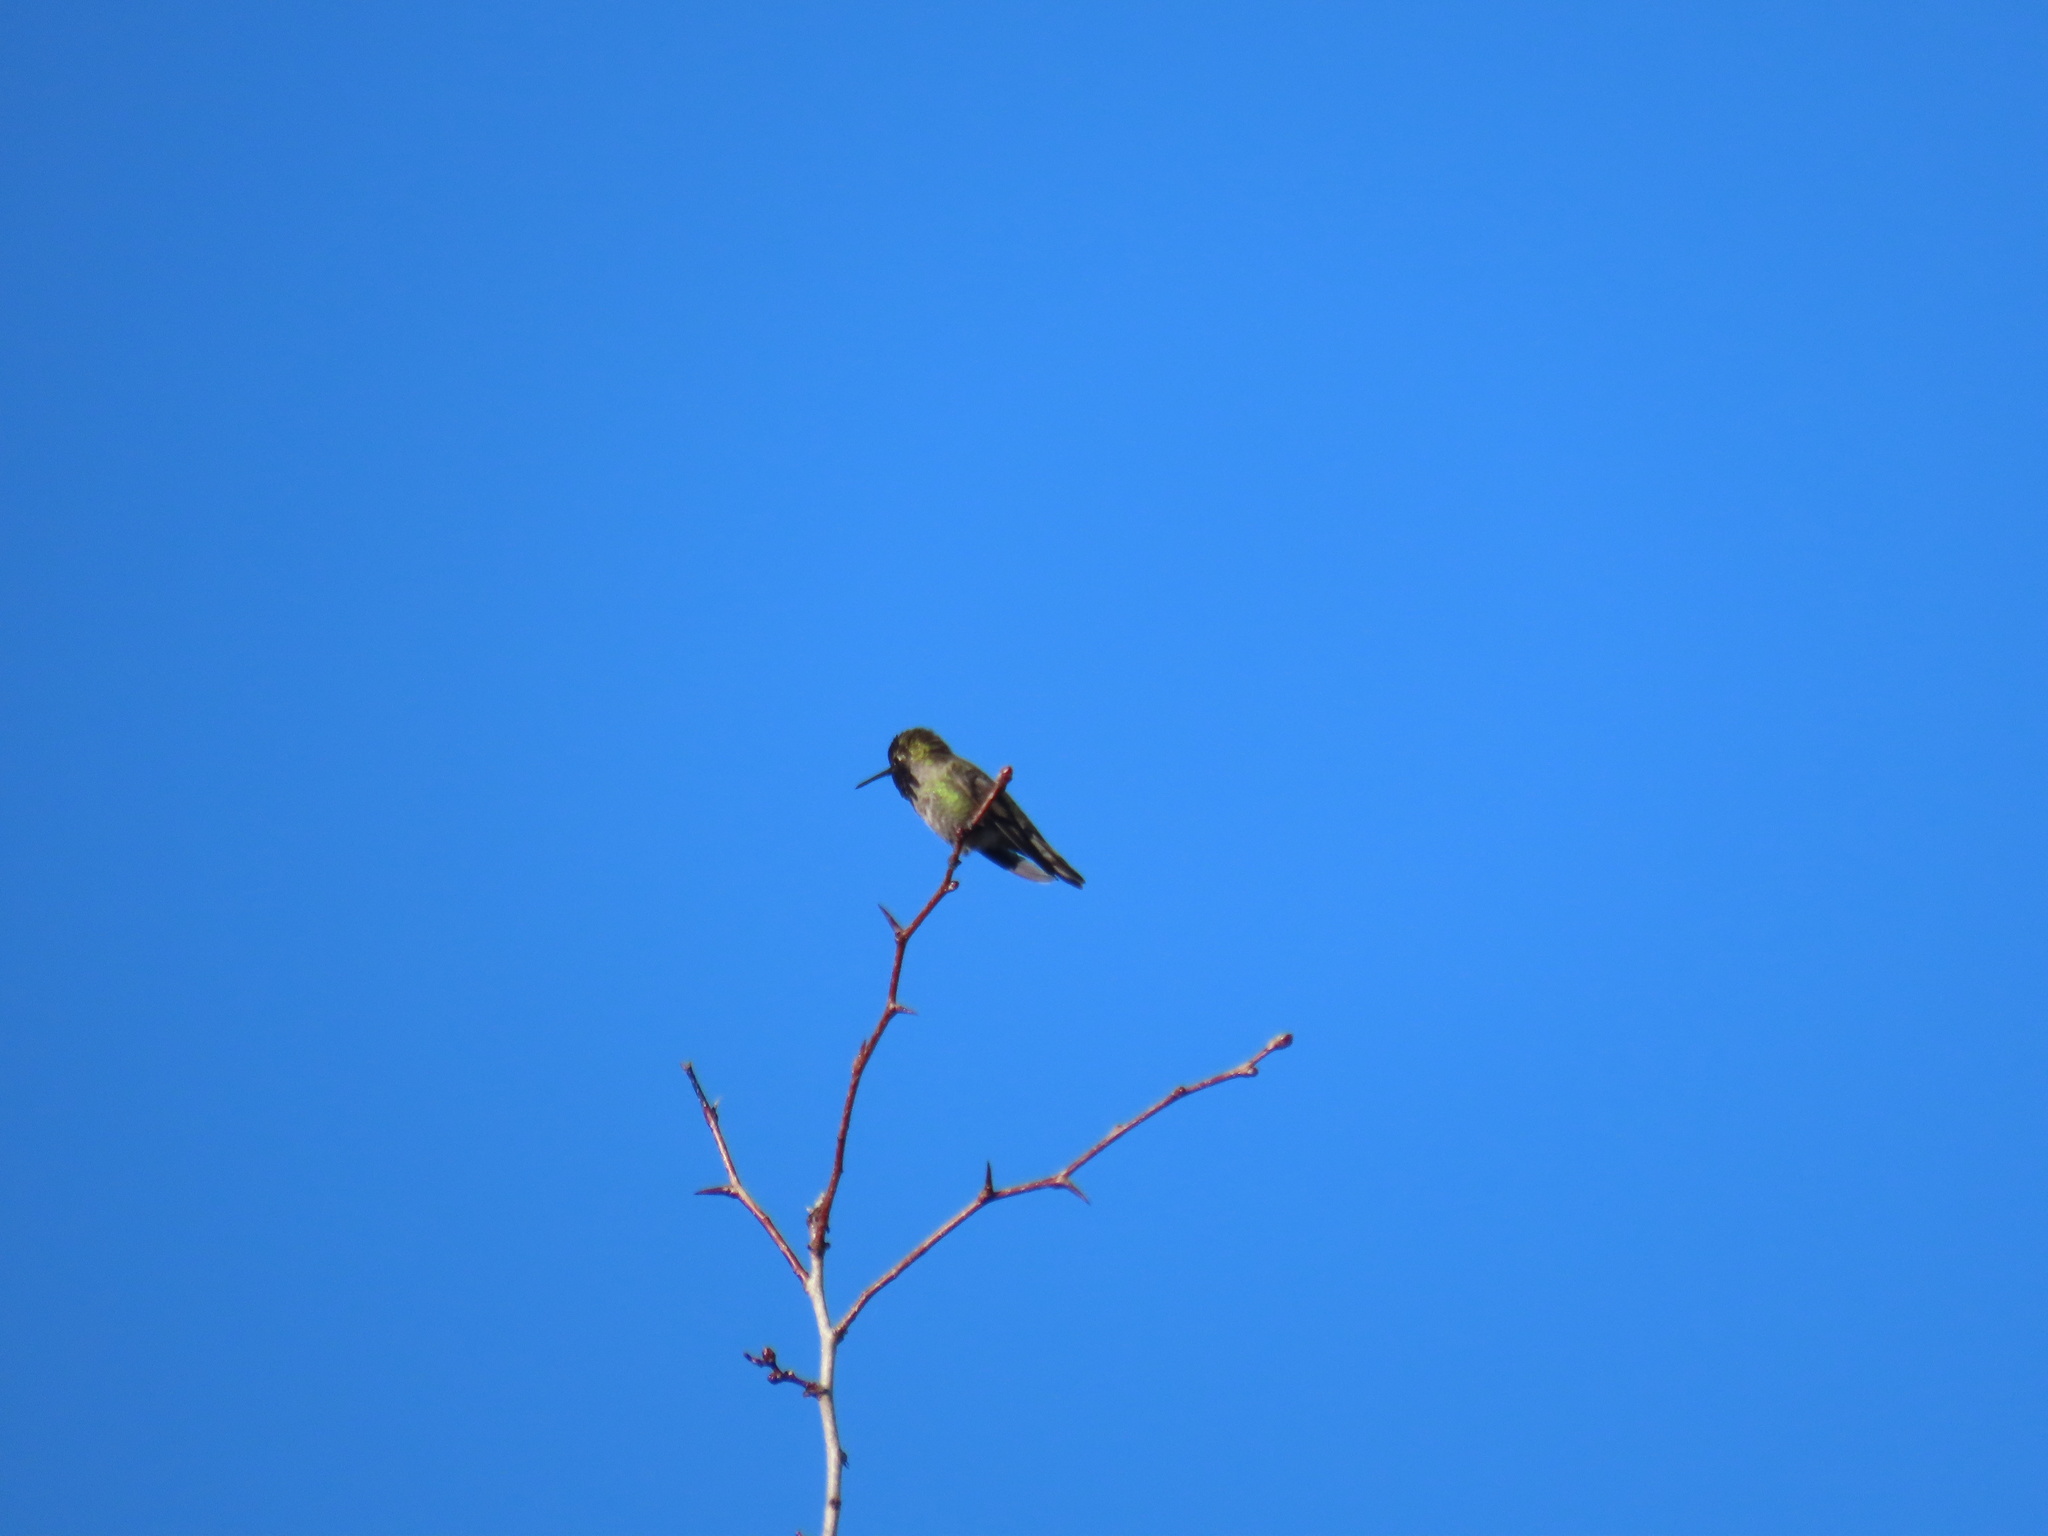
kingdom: Animalia
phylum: Chordata
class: Aves
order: Apodiformes
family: Trochilidae
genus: Calypte
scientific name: Calypte anna
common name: Anna's hummingbird
